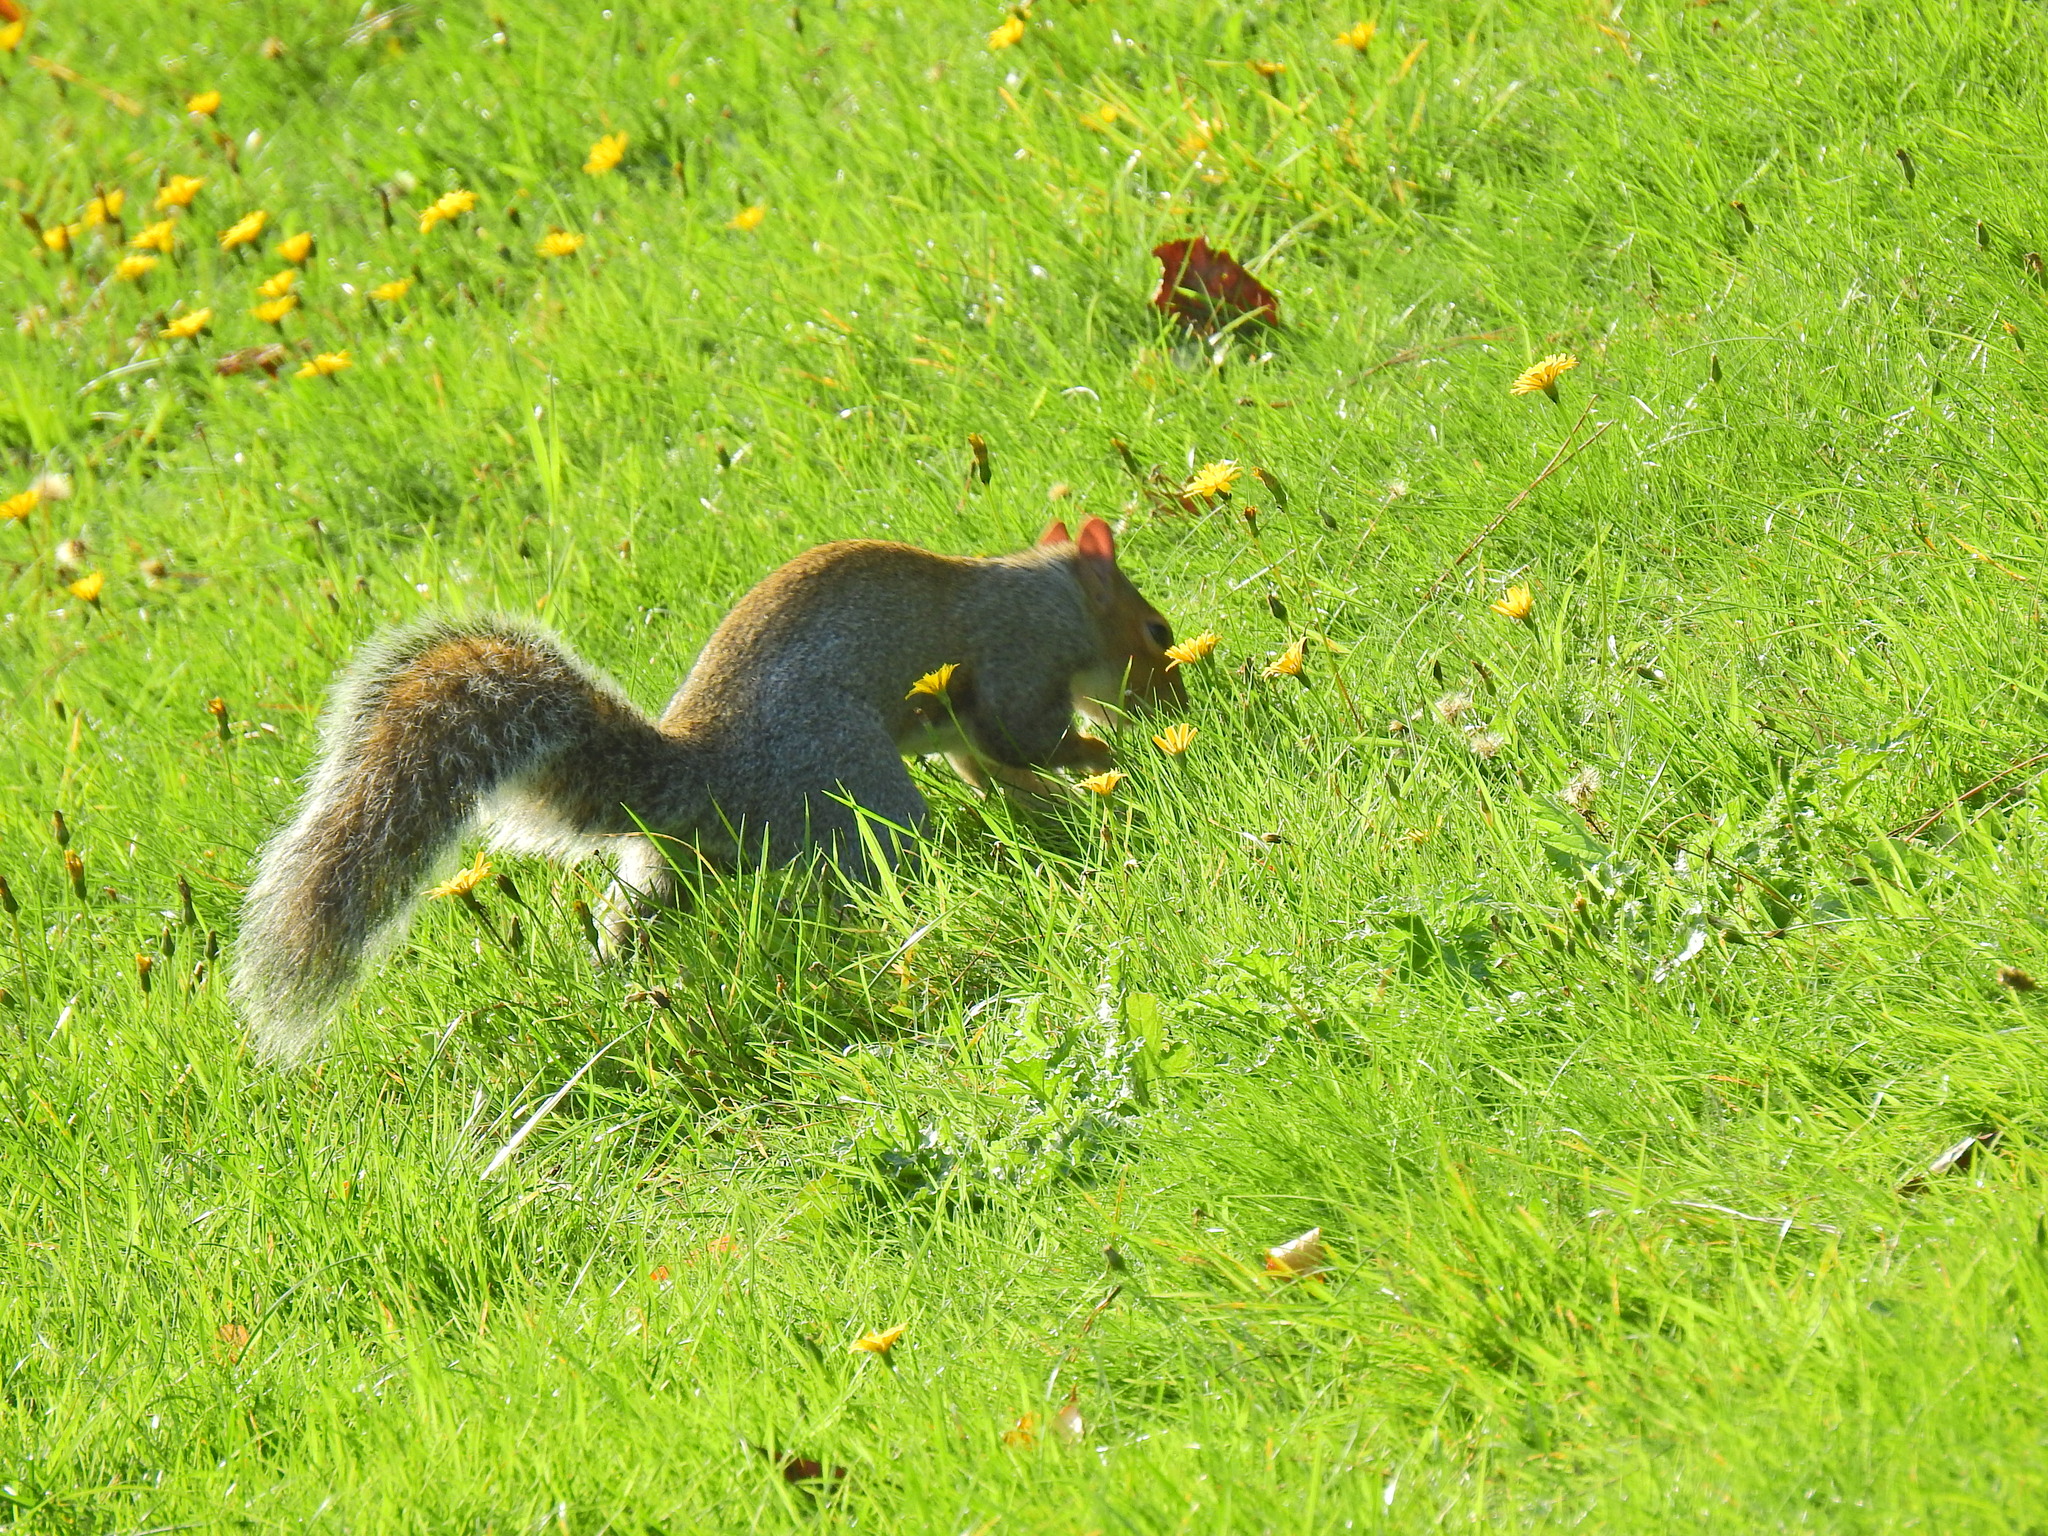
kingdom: Animalia
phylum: Chordata
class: Mammalia
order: Rodentia
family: Sciuridae
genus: Sciurus
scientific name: Sciurus carolinensis
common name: Eastern gray squirrel
